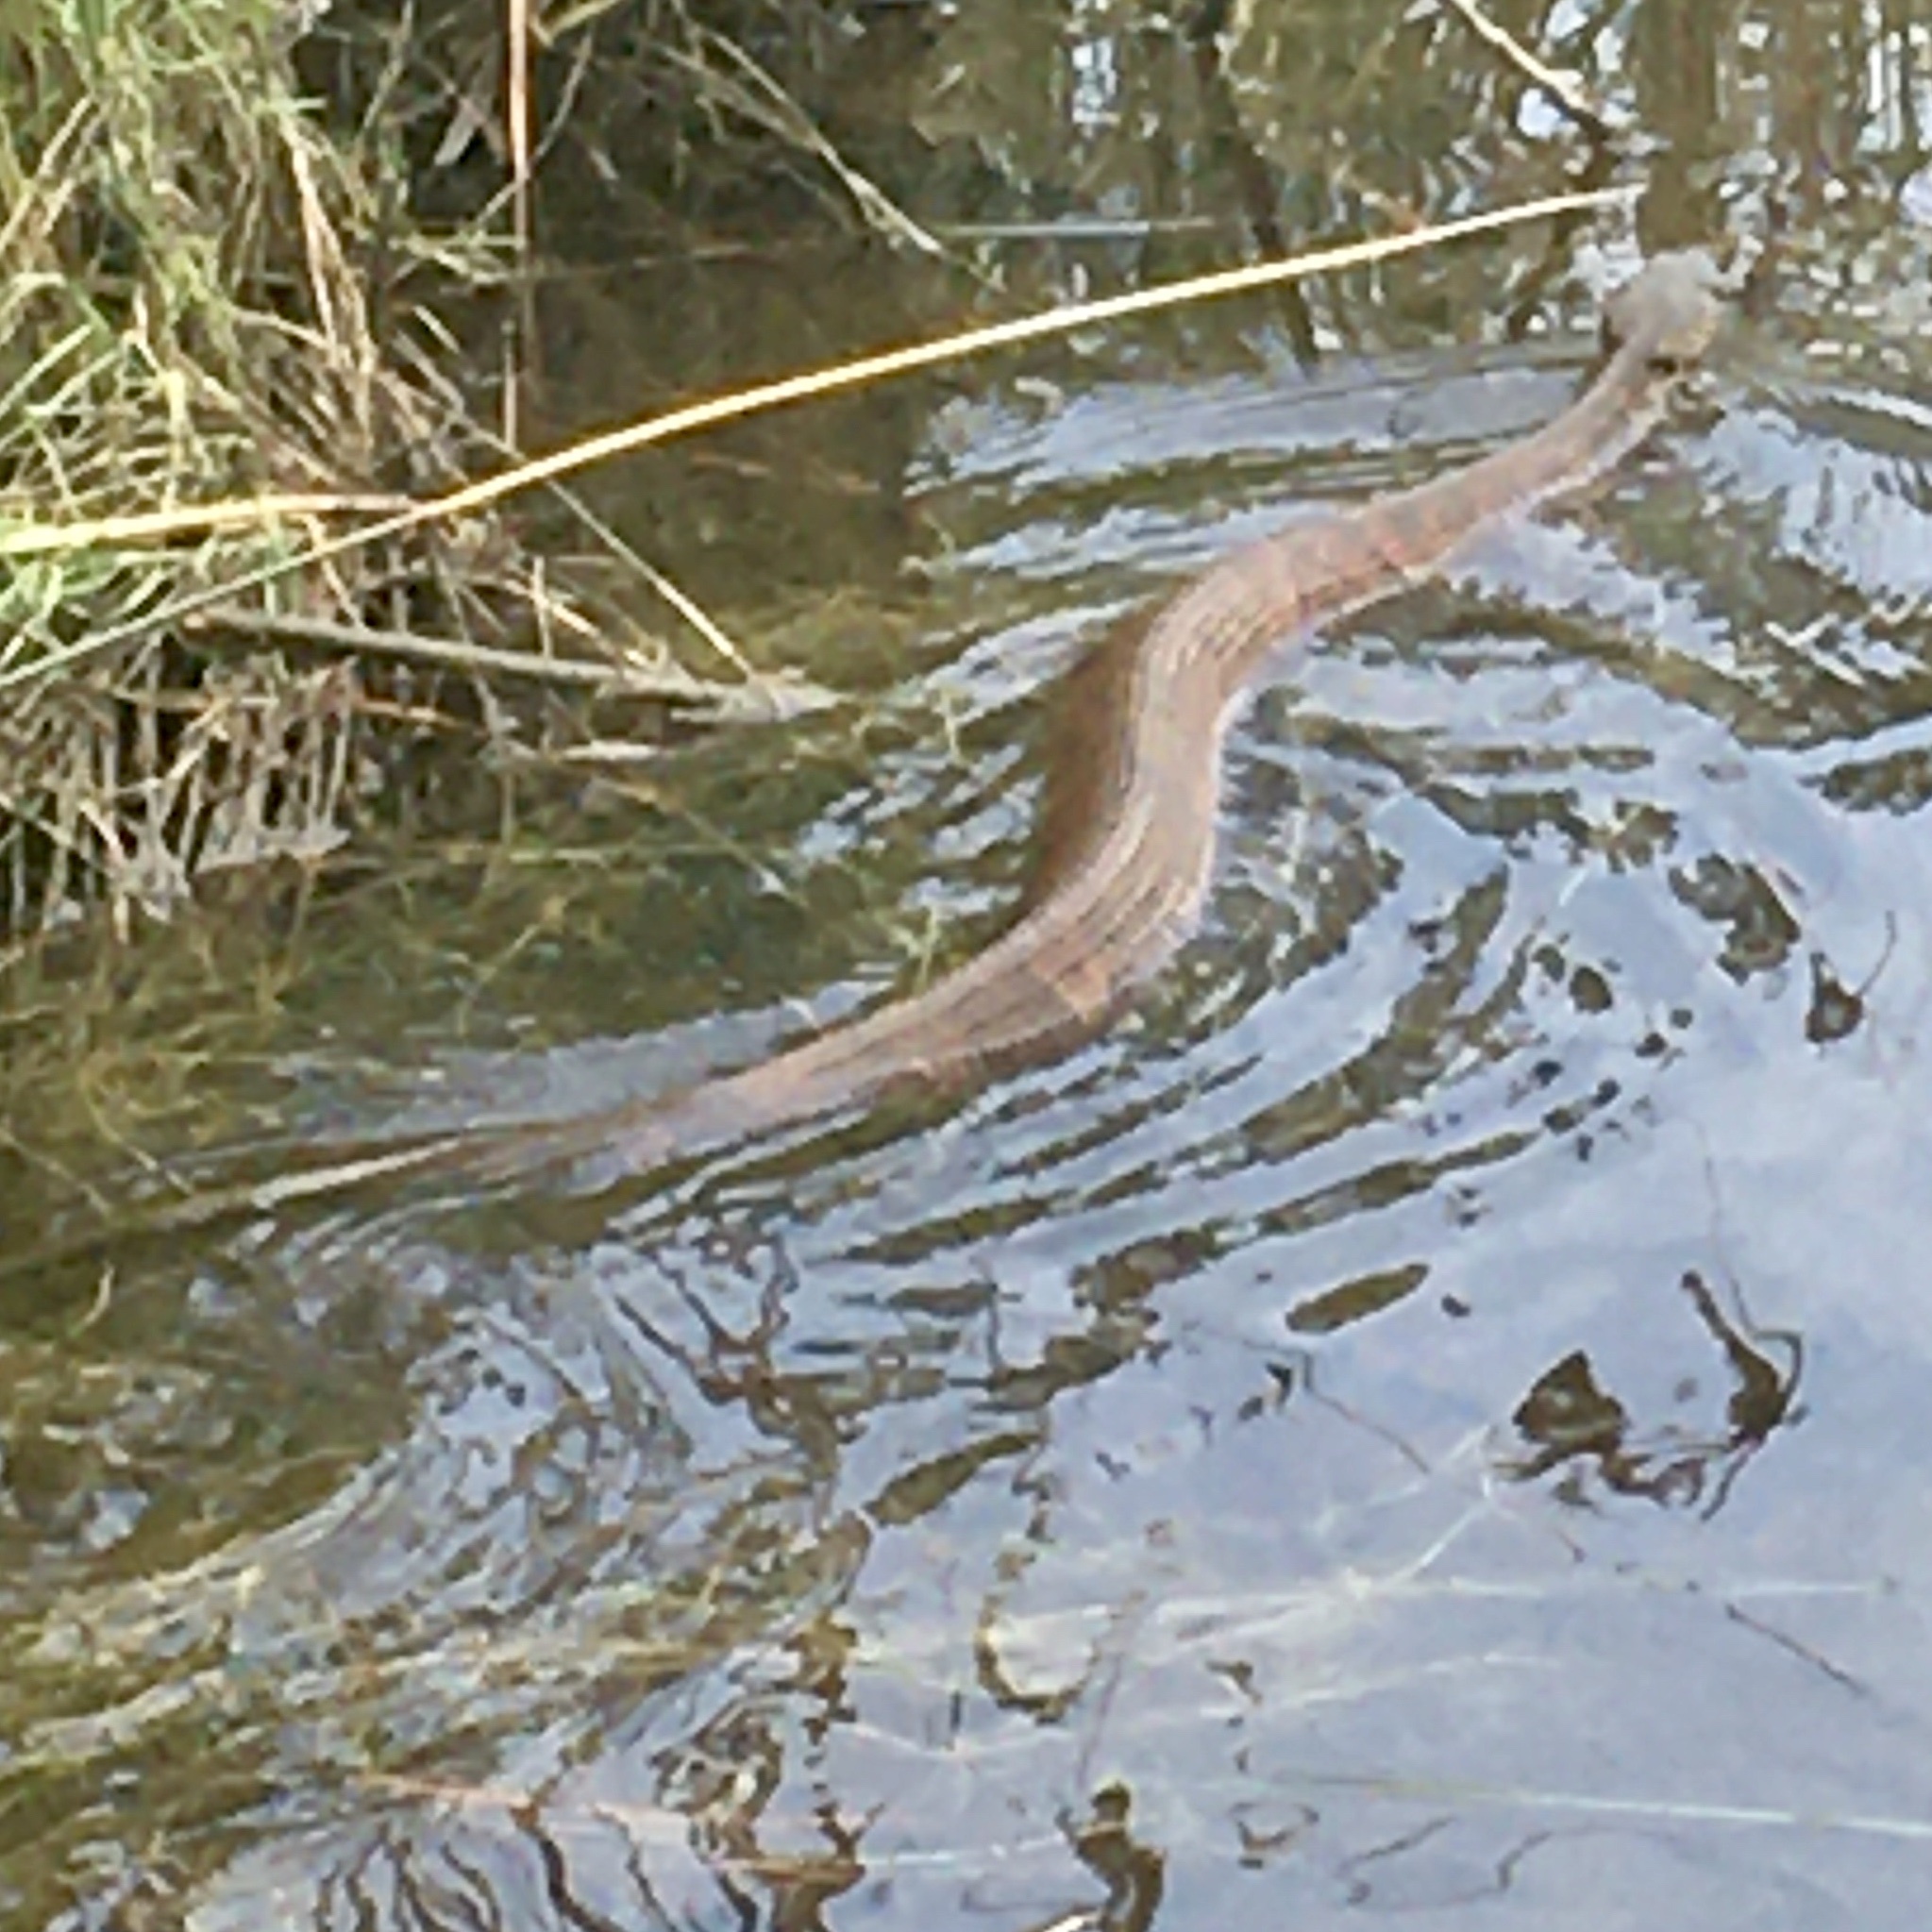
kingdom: Animalia
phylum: Chordata
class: Squamata
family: Viperidae
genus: Agkistrodon
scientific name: Agkistrodon piscivorus
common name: Cottonmouth
